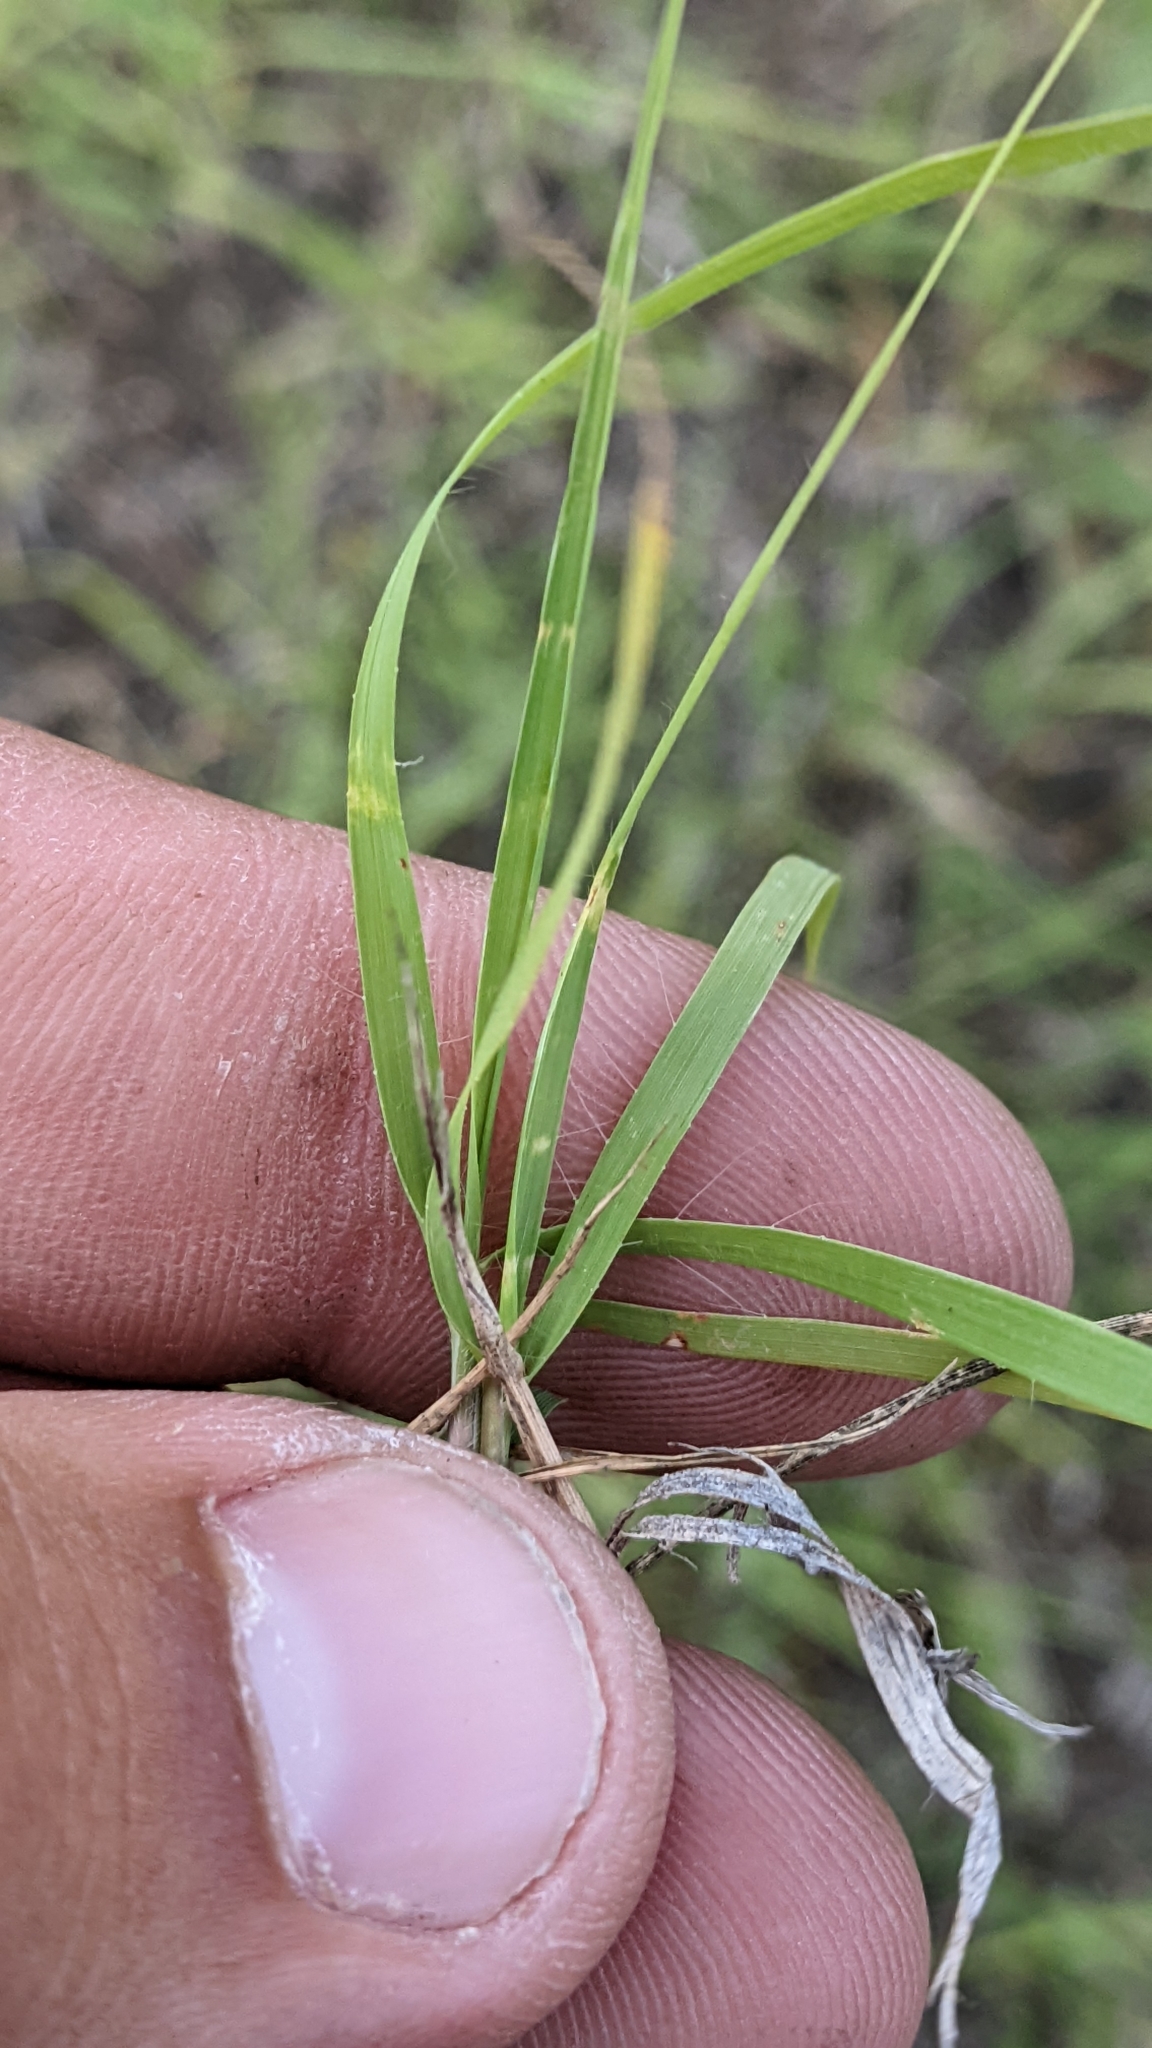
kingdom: Plantae
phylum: Tracheophyta
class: Liliopsida
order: Poales
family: Poaceae
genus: Bouteloua
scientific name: Bouteloua curtipendula
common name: Side-oats grama
